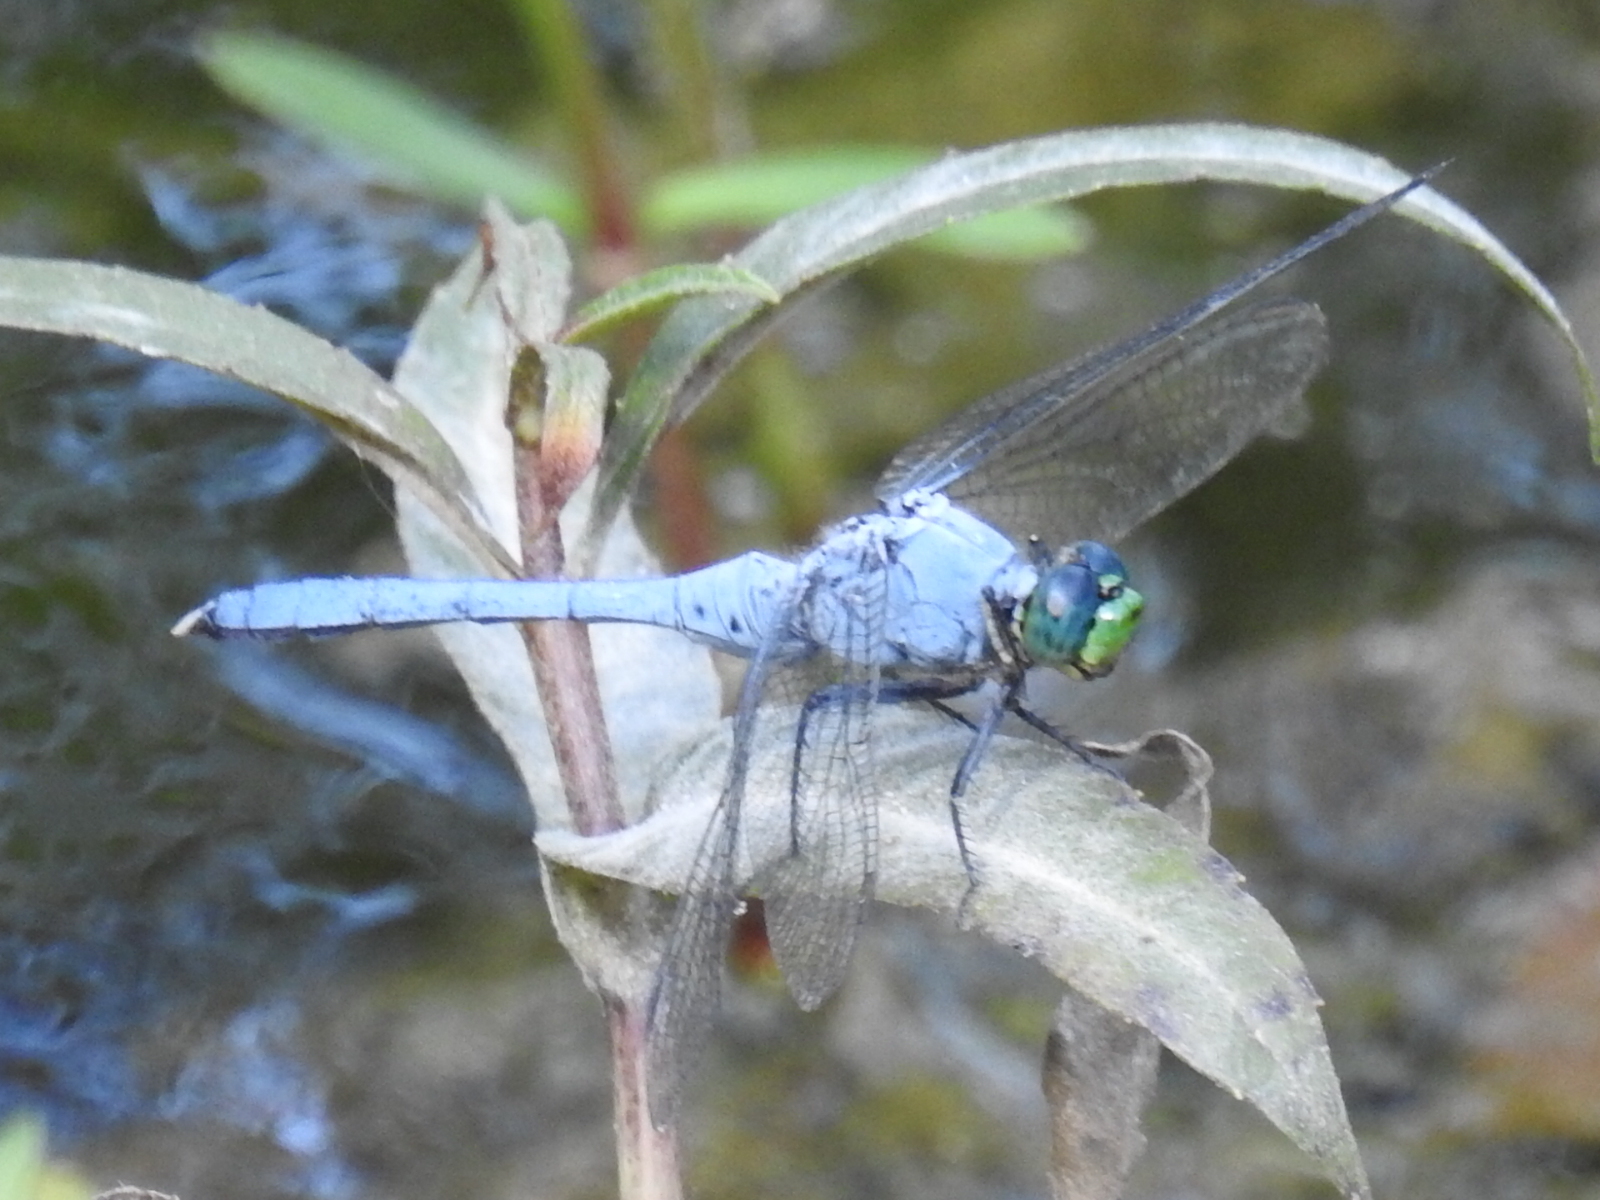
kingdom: Animalia
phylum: Arthropoda
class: Insecta
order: Odonata
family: Libellulidae
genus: Erythemis
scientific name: Erythemis simplicicollis
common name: Eastern pondhawk
